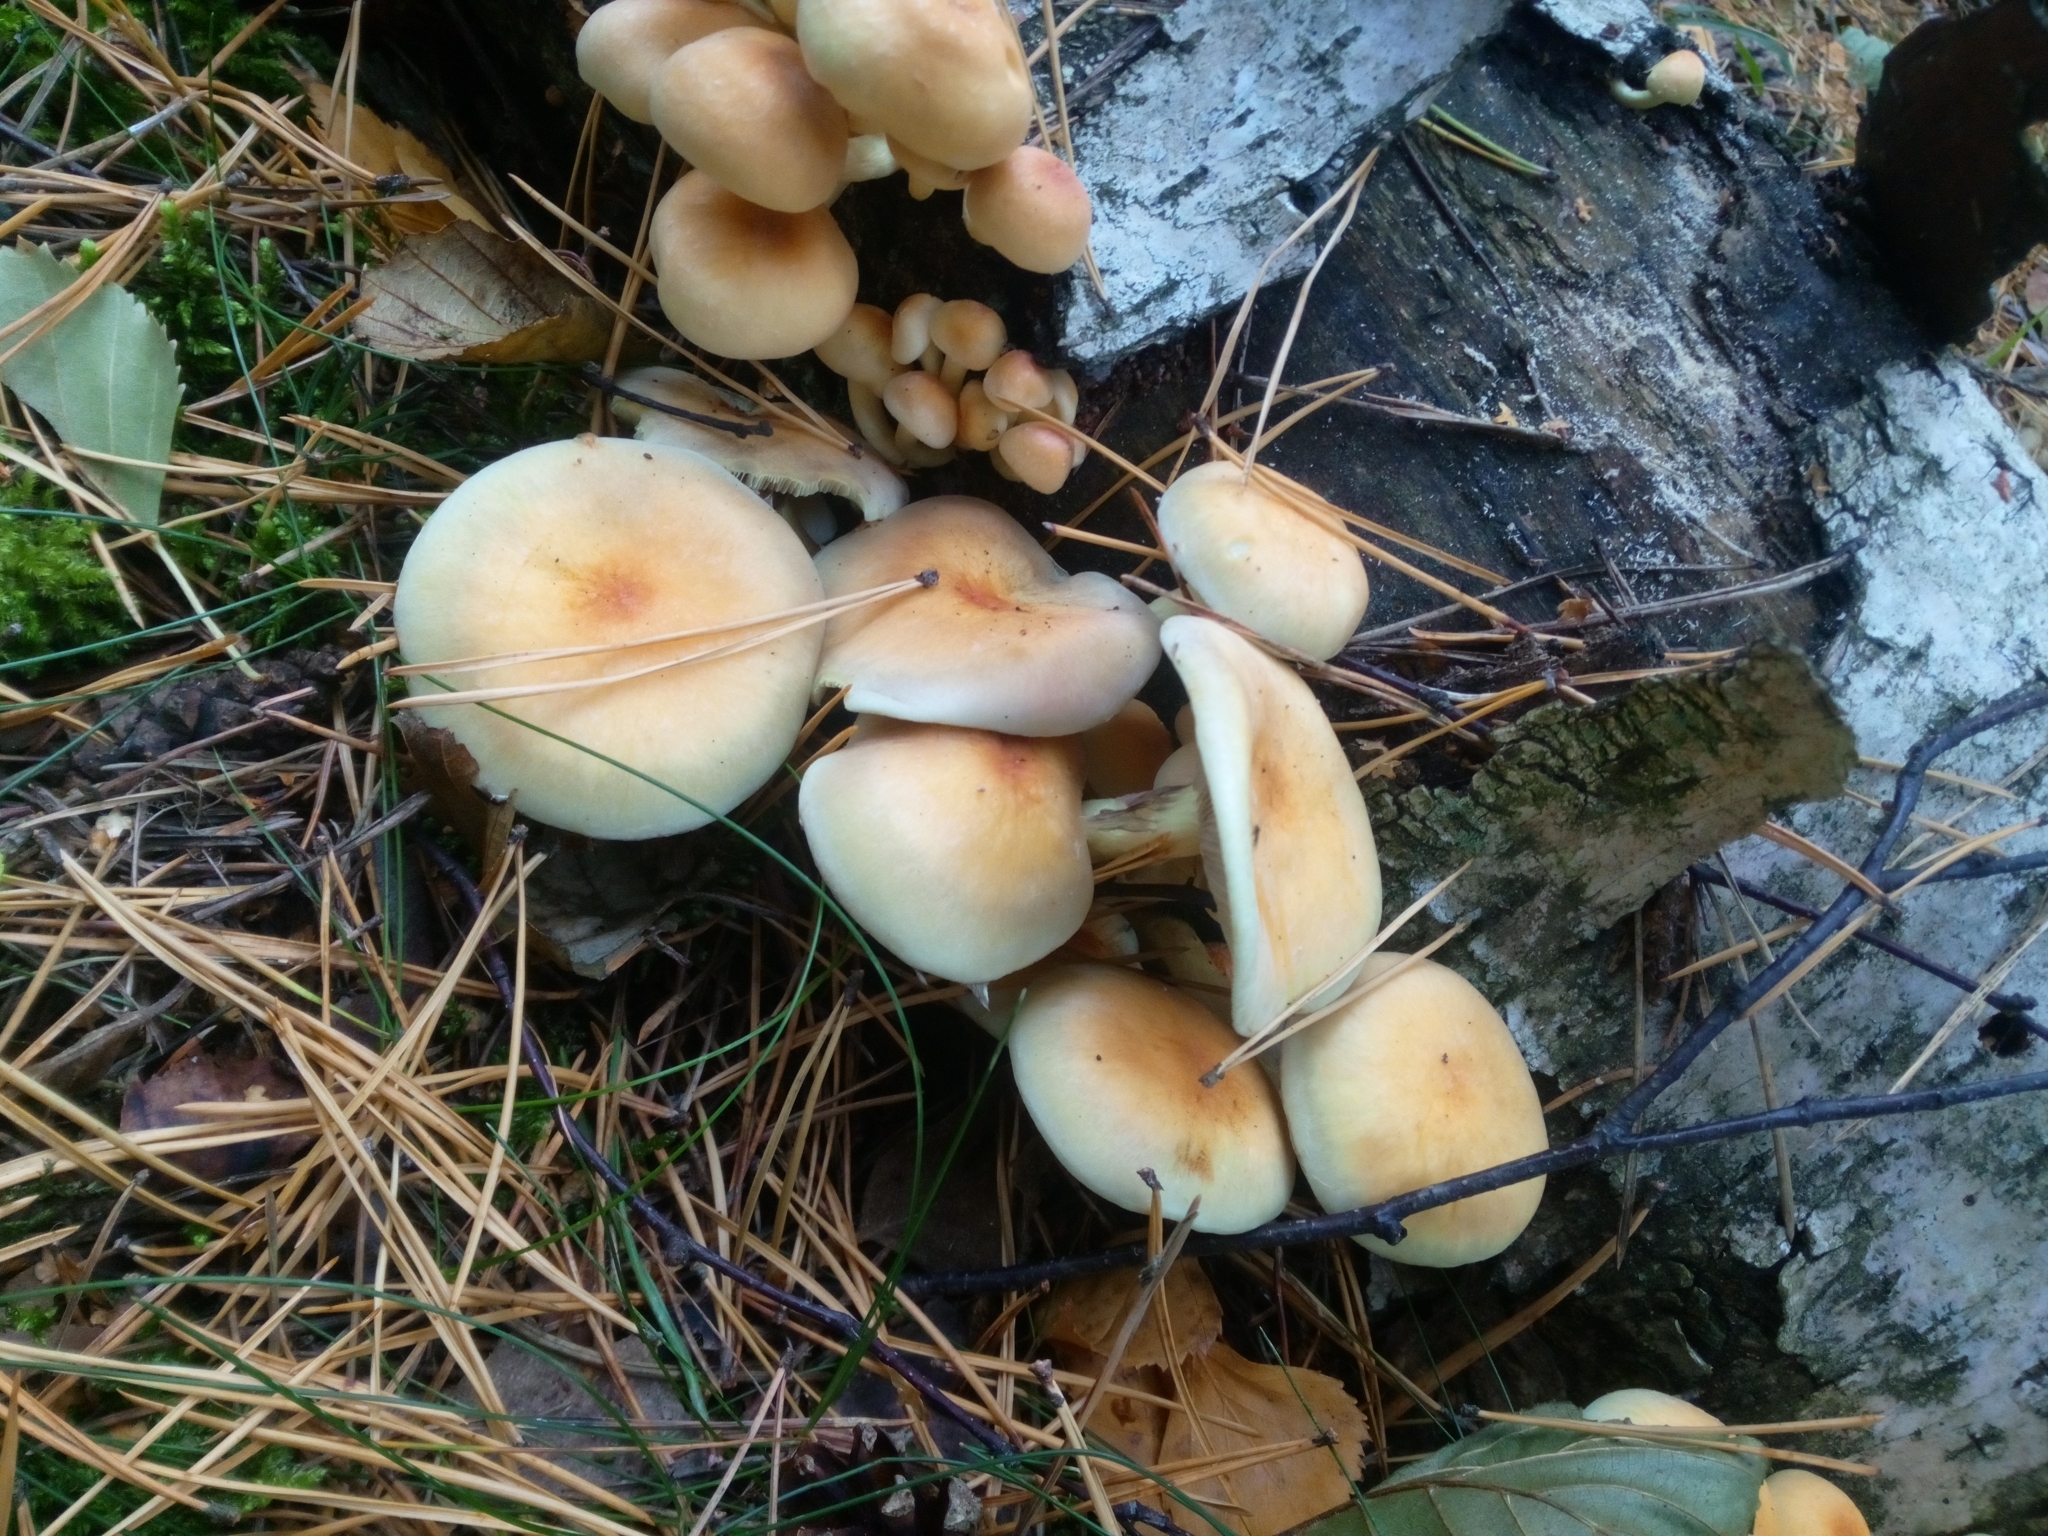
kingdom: Fungi
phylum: Basidiomycota
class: Agaricomycetes
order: Agaricales
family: Strophariaceae
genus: Hypholoma
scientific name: Hypholoma fasciculare
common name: Sulphur tuft
